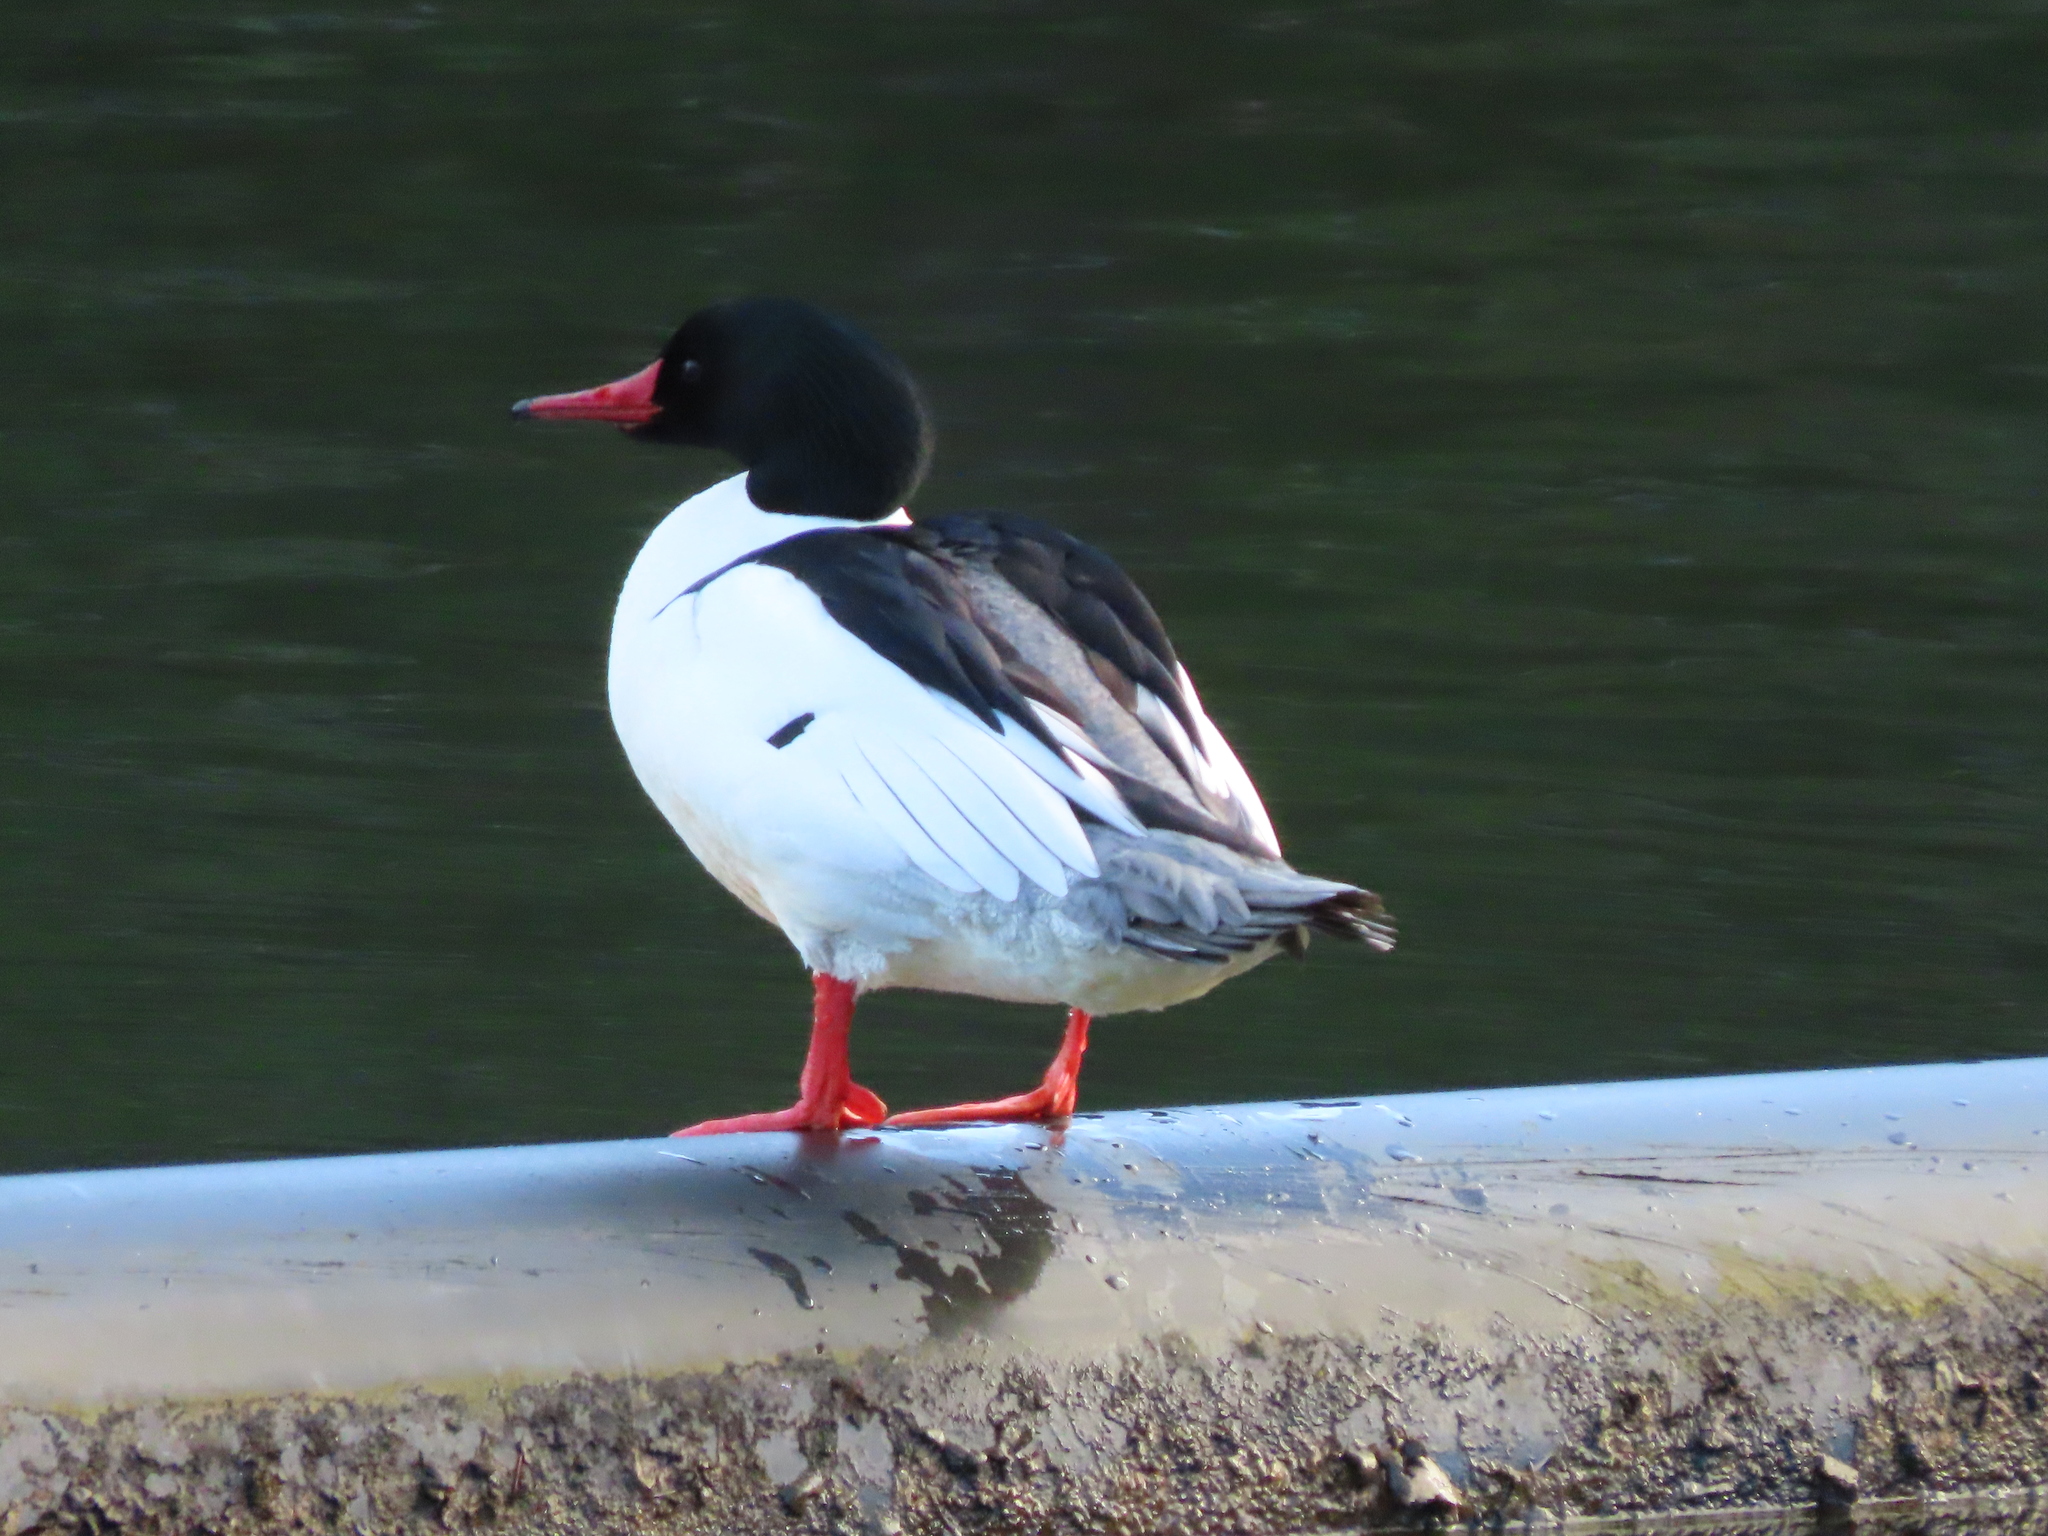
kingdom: Animalia
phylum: Chordata
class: Aves
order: Anseriformes
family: Anatidae
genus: Mergus
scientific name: Mergus merganser
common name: Common merganser
